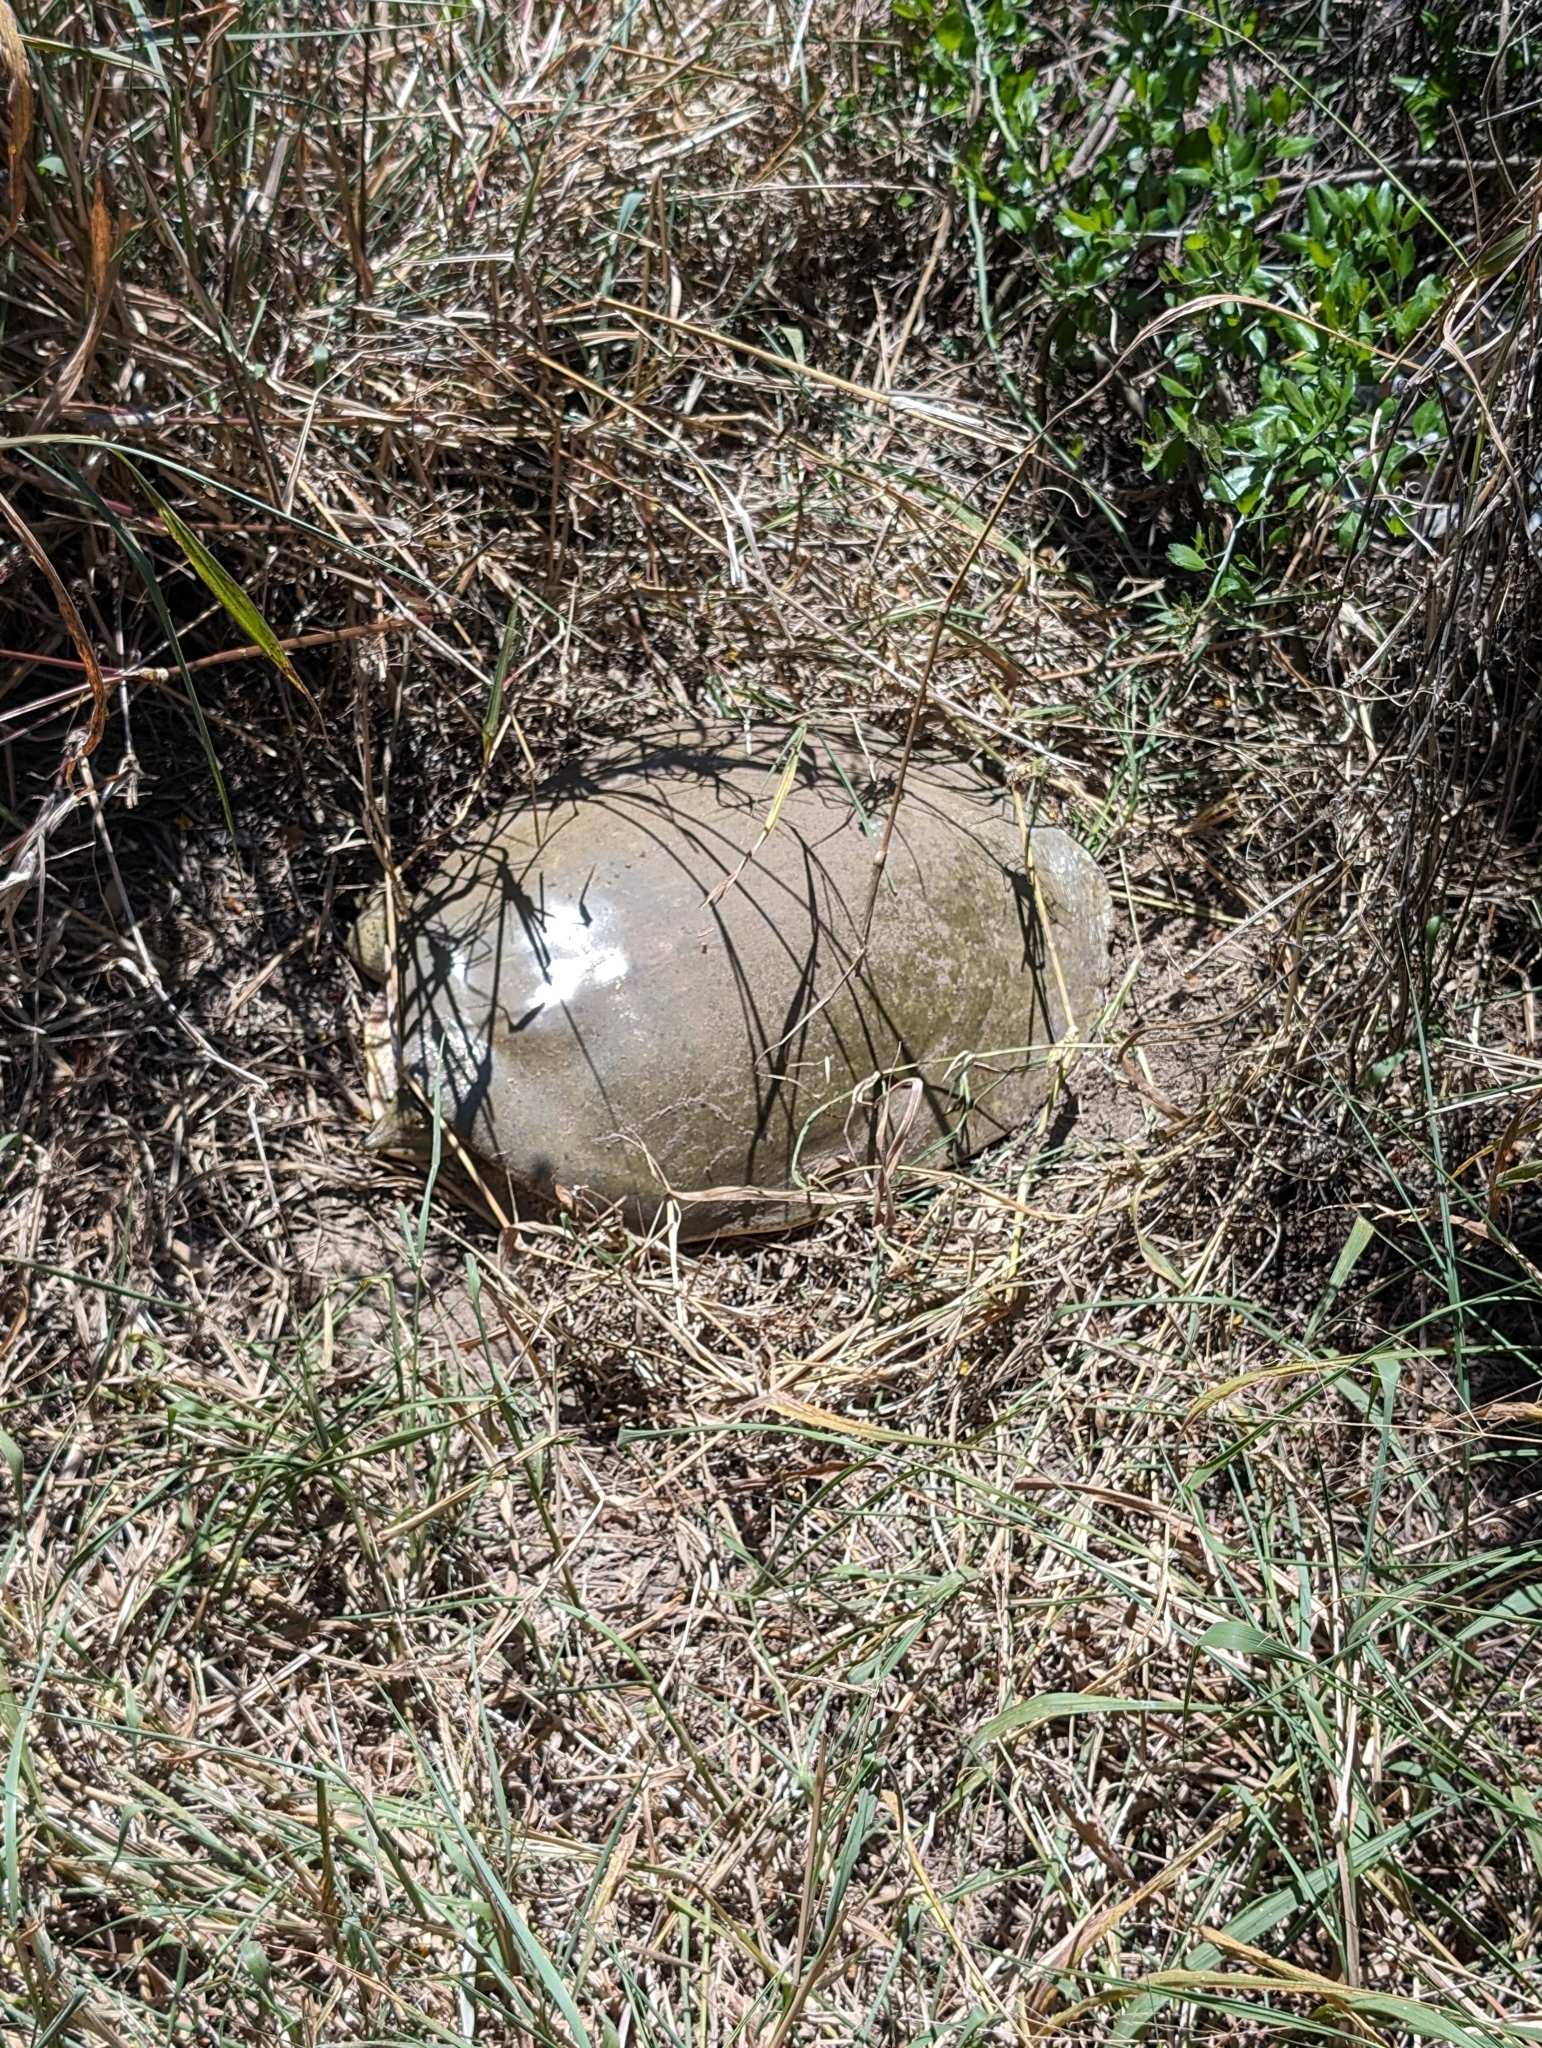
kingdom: Animalia
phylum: Chordata
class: Testudines
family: Trionychidae
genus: Apalone
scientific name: Apalone spinifera
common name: Spiny softshell turtle
